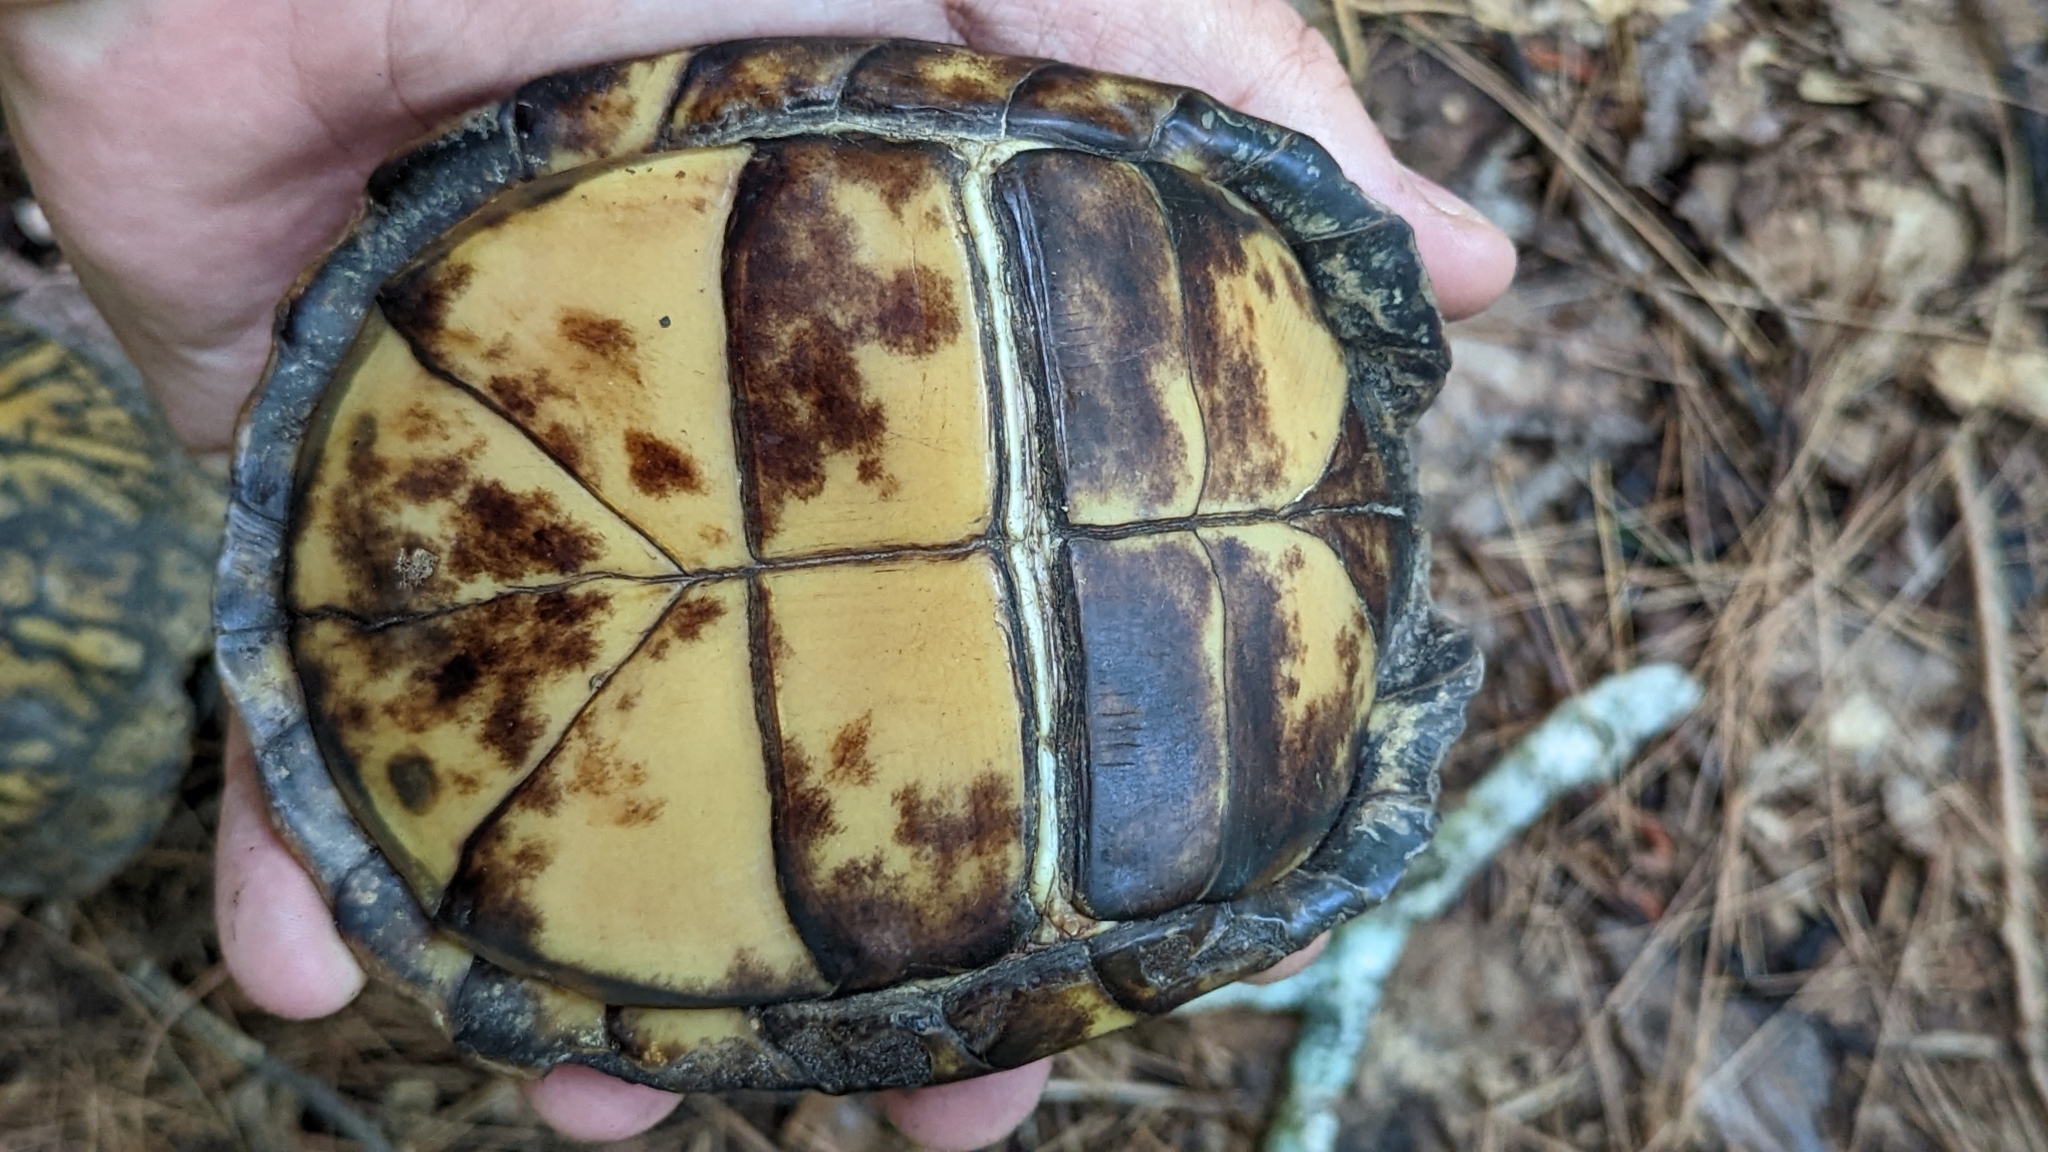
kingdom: Animalia
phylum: Chordata
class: Testudines
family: Emydidae
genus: Terrapene
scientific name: Terrapene carolina
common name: Common box turtle
